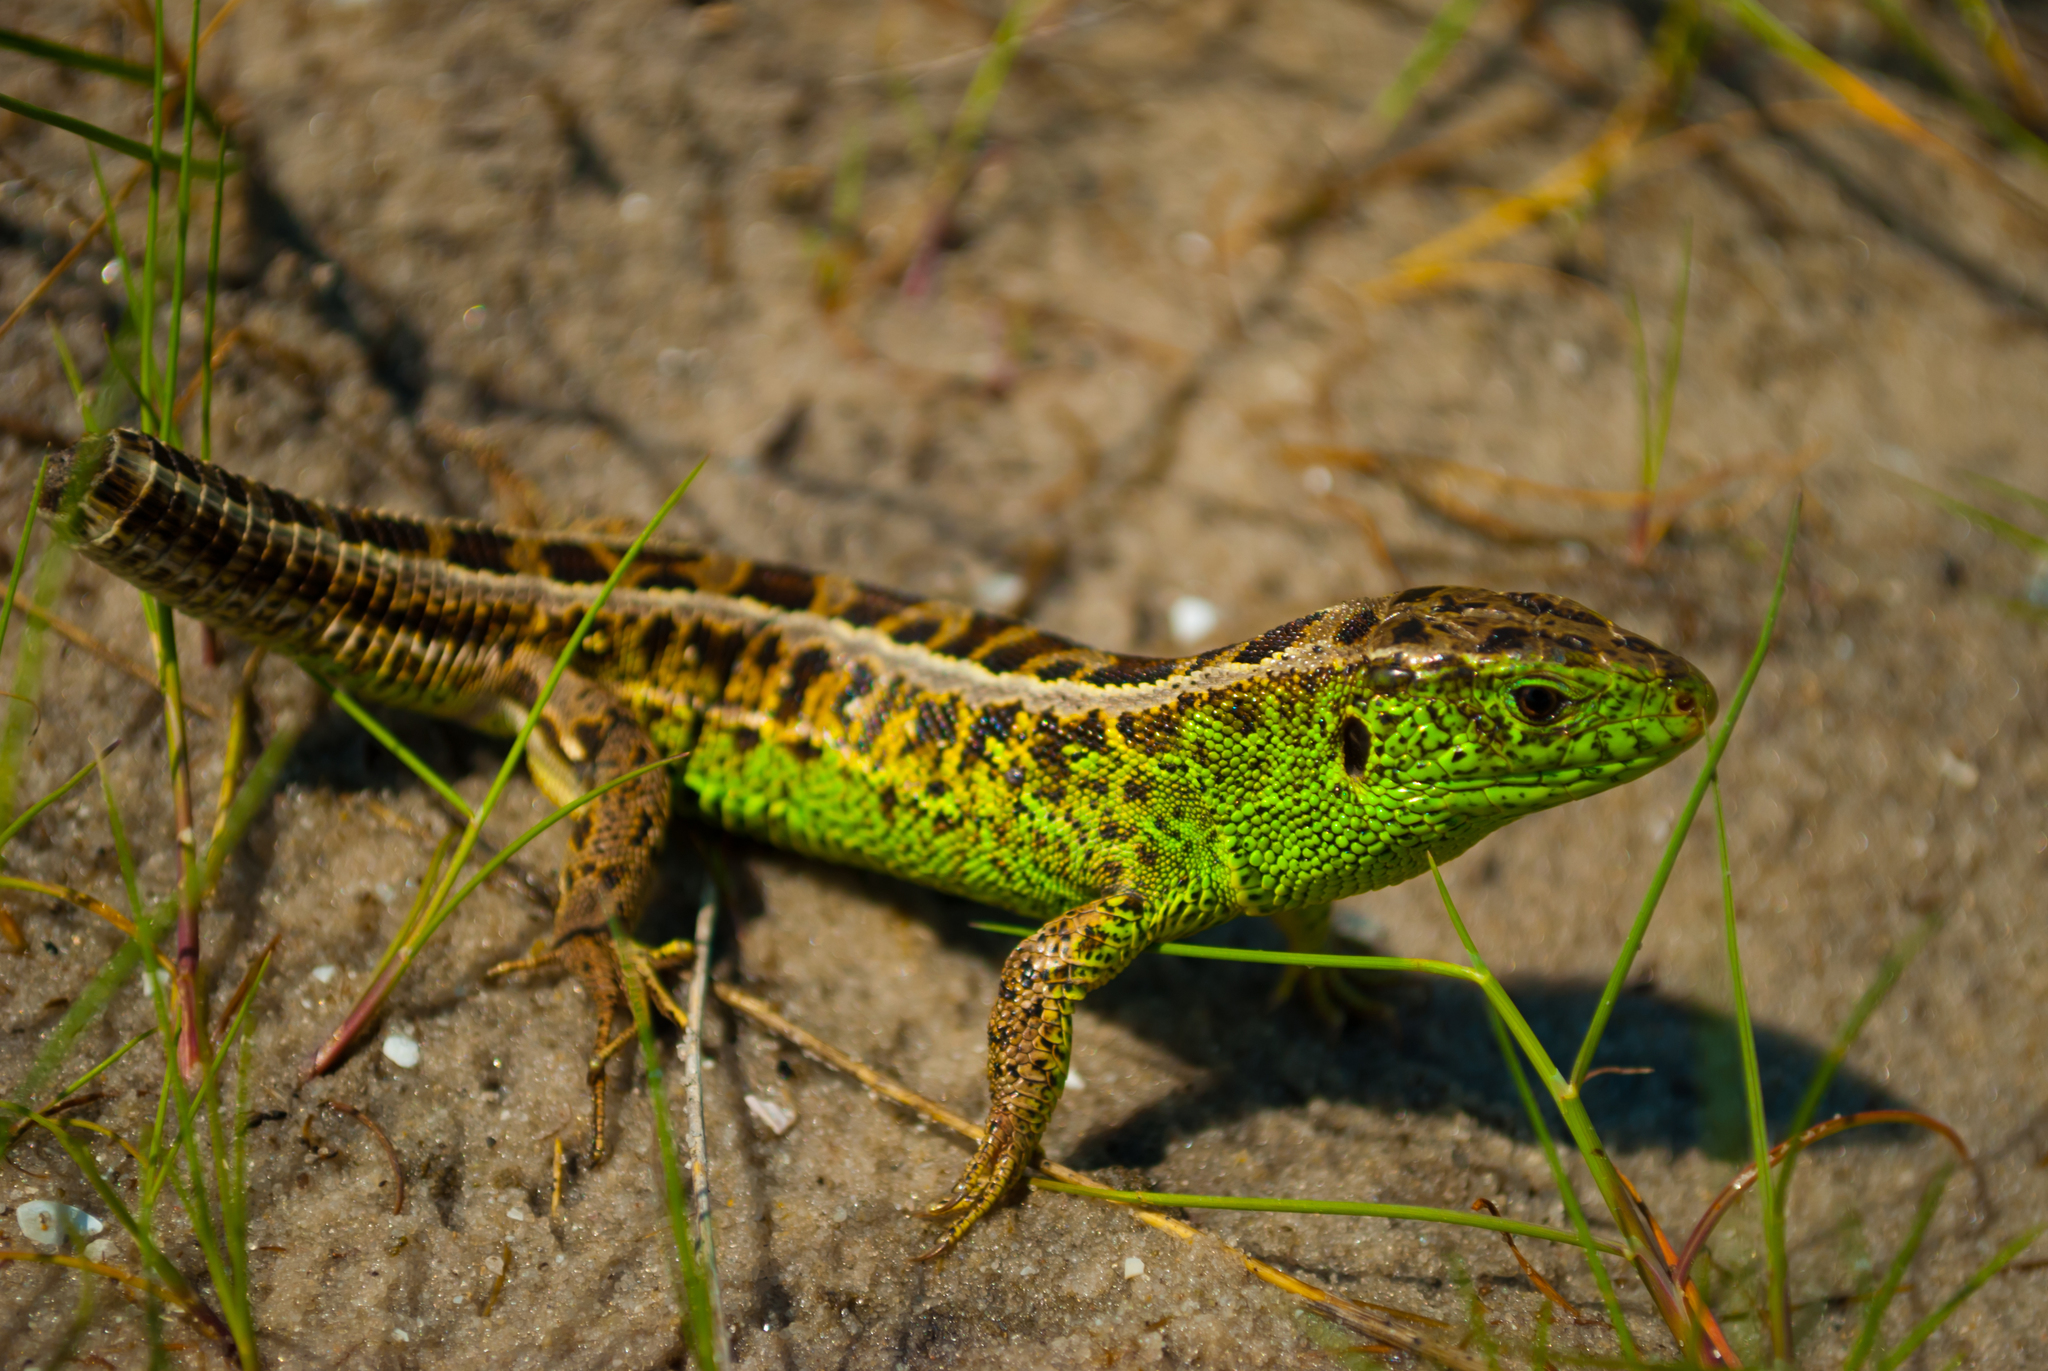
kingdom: Animalia
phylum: Chordata
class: Squamata
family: Lacertidae
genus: Lacerta
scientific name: Lacerta agilis
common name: Sand lizard
